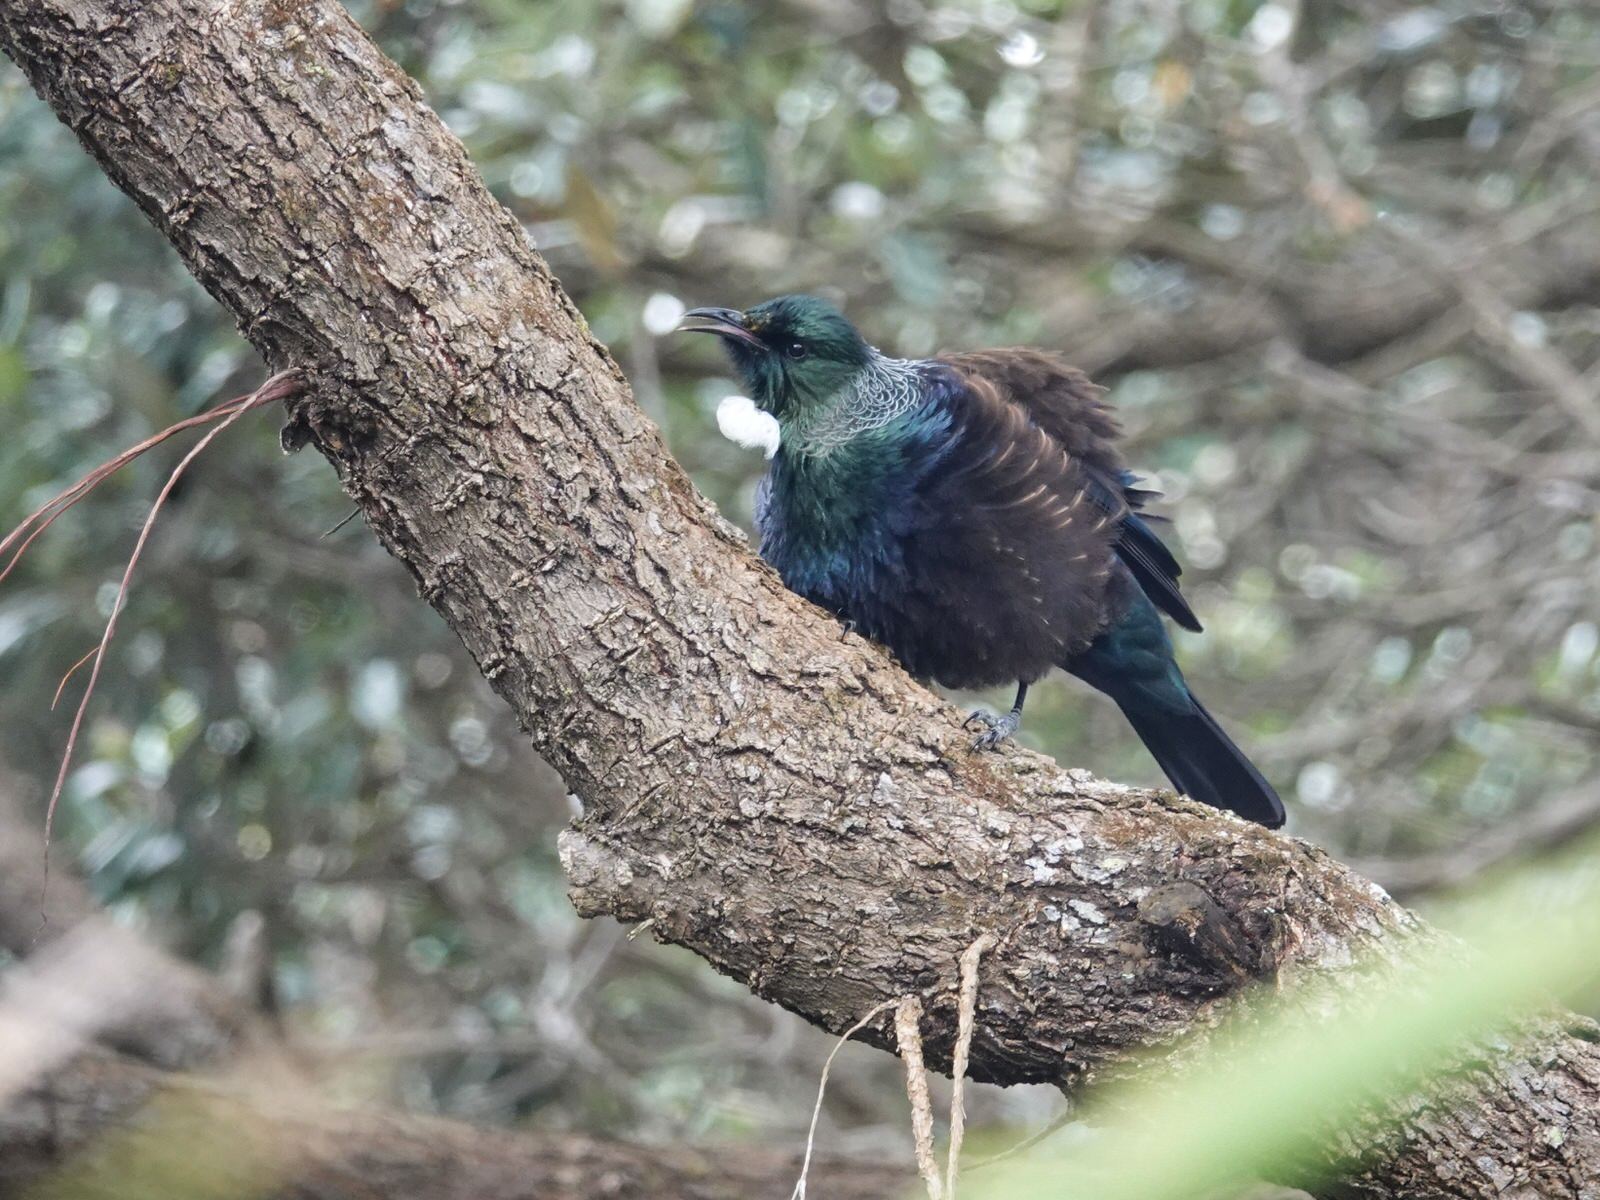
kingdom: Animalia
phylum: Chordata
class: Aves
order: Passeriformes
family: Meliphagidae
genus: Prosthemadera
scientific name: Prosthemadera novaeseelandiae
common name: Tui
